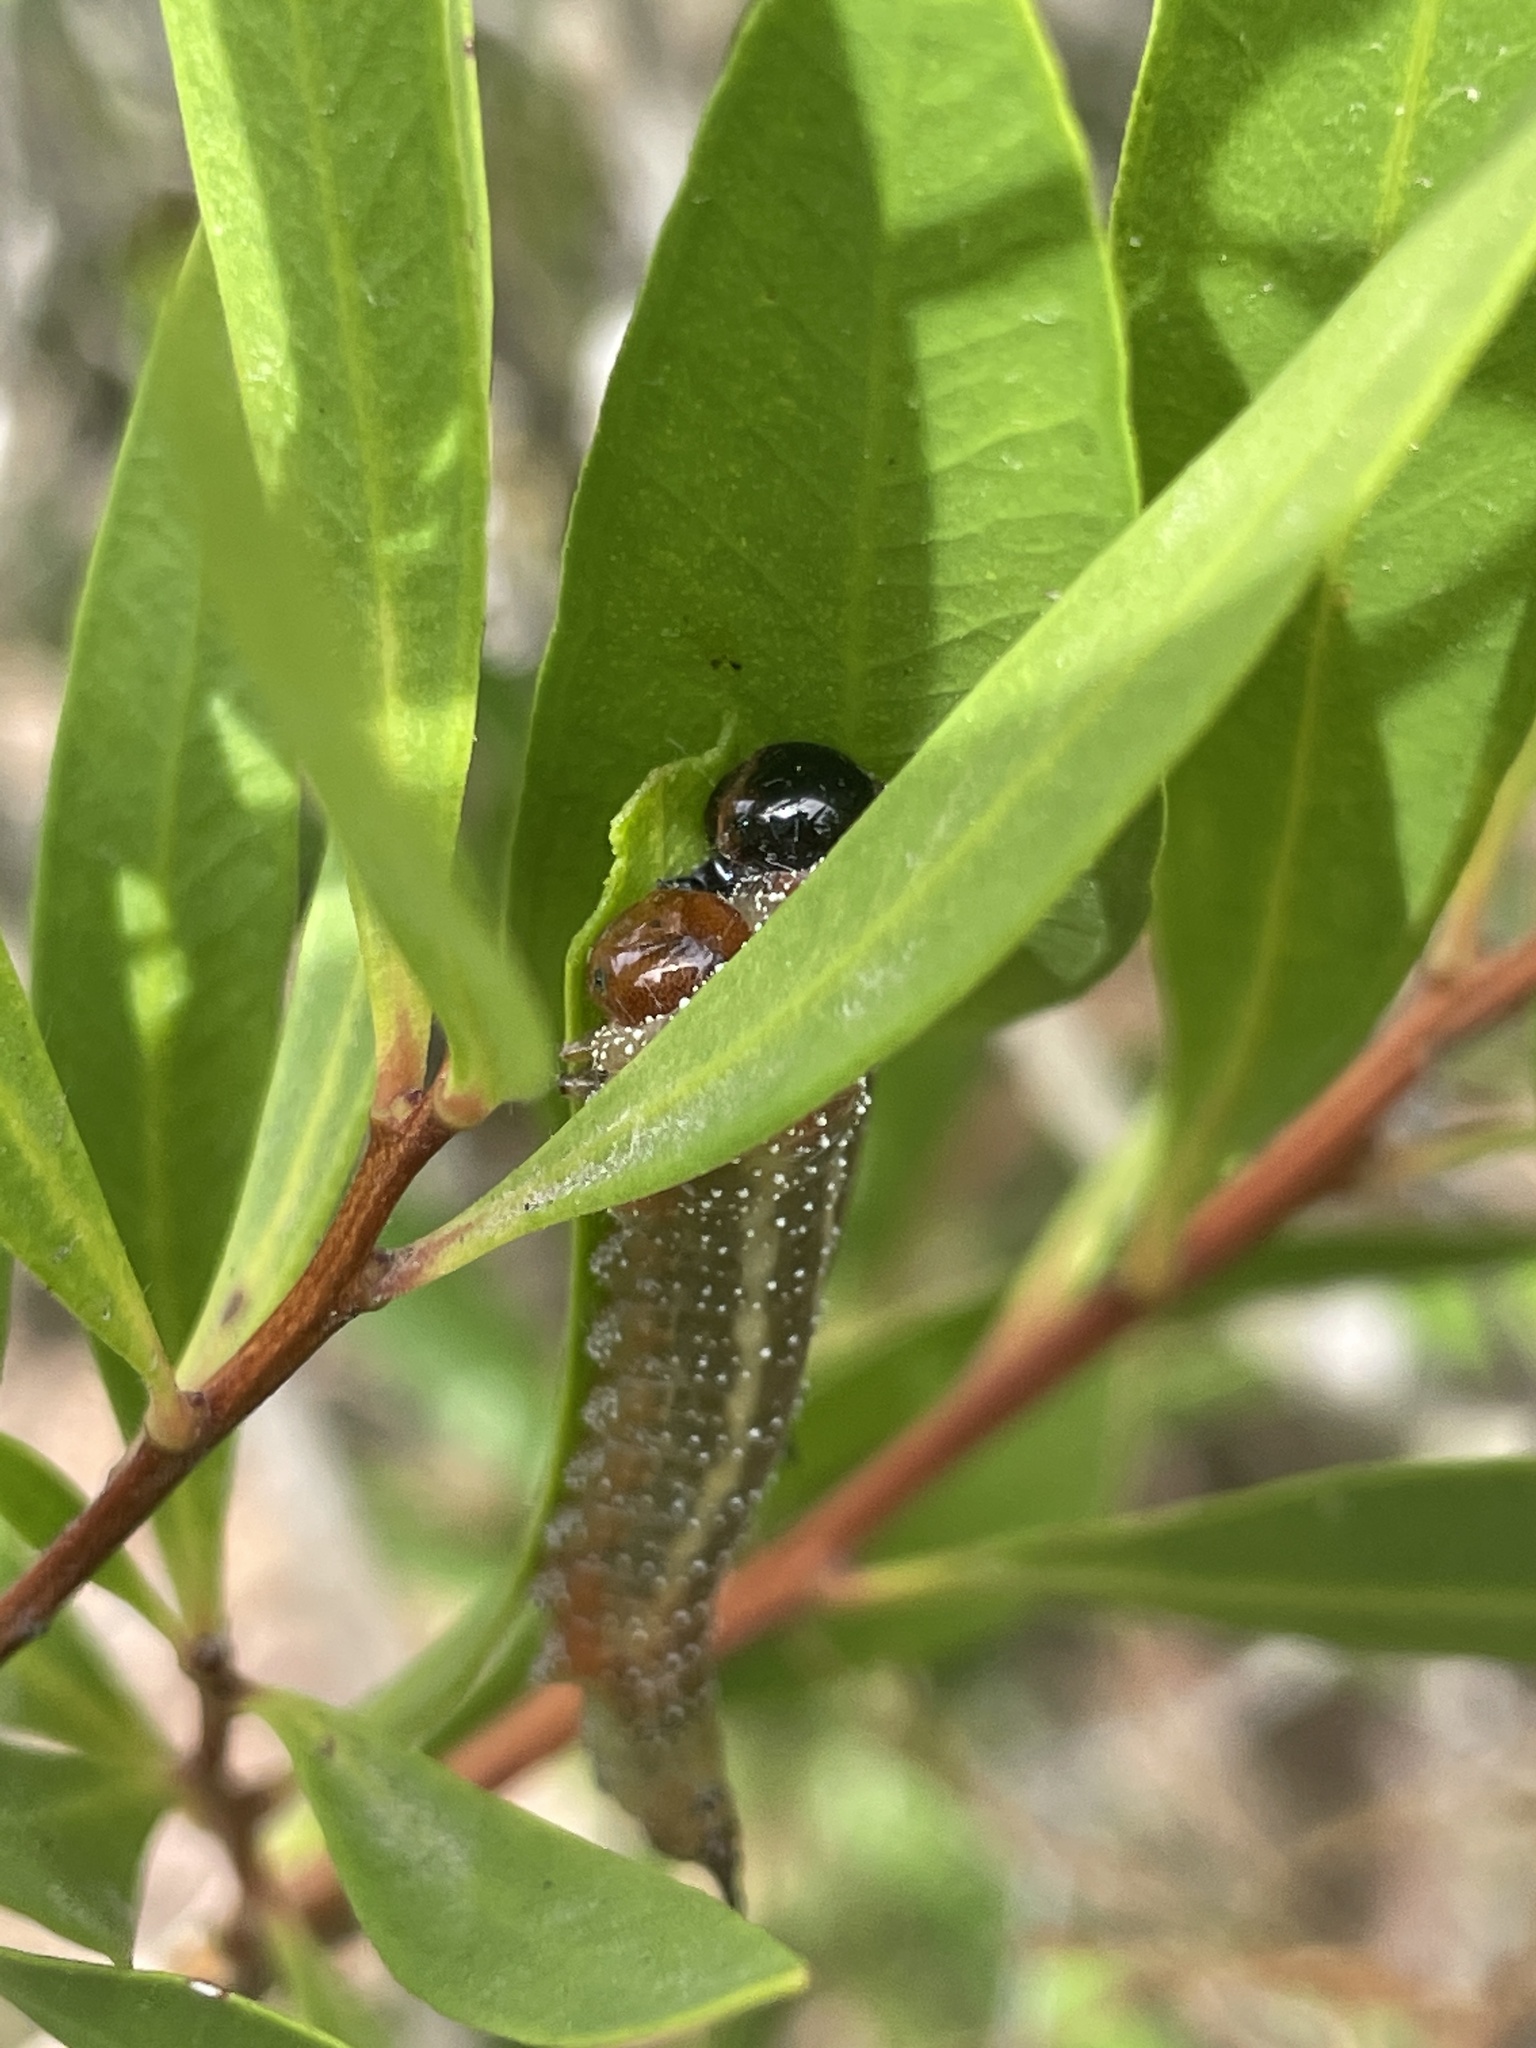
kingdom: Animalia
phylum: Arthropoda
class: Insecta
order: Hymenoptera
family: Pergidae
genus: Pterygophorus
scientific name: Pterygophorus
